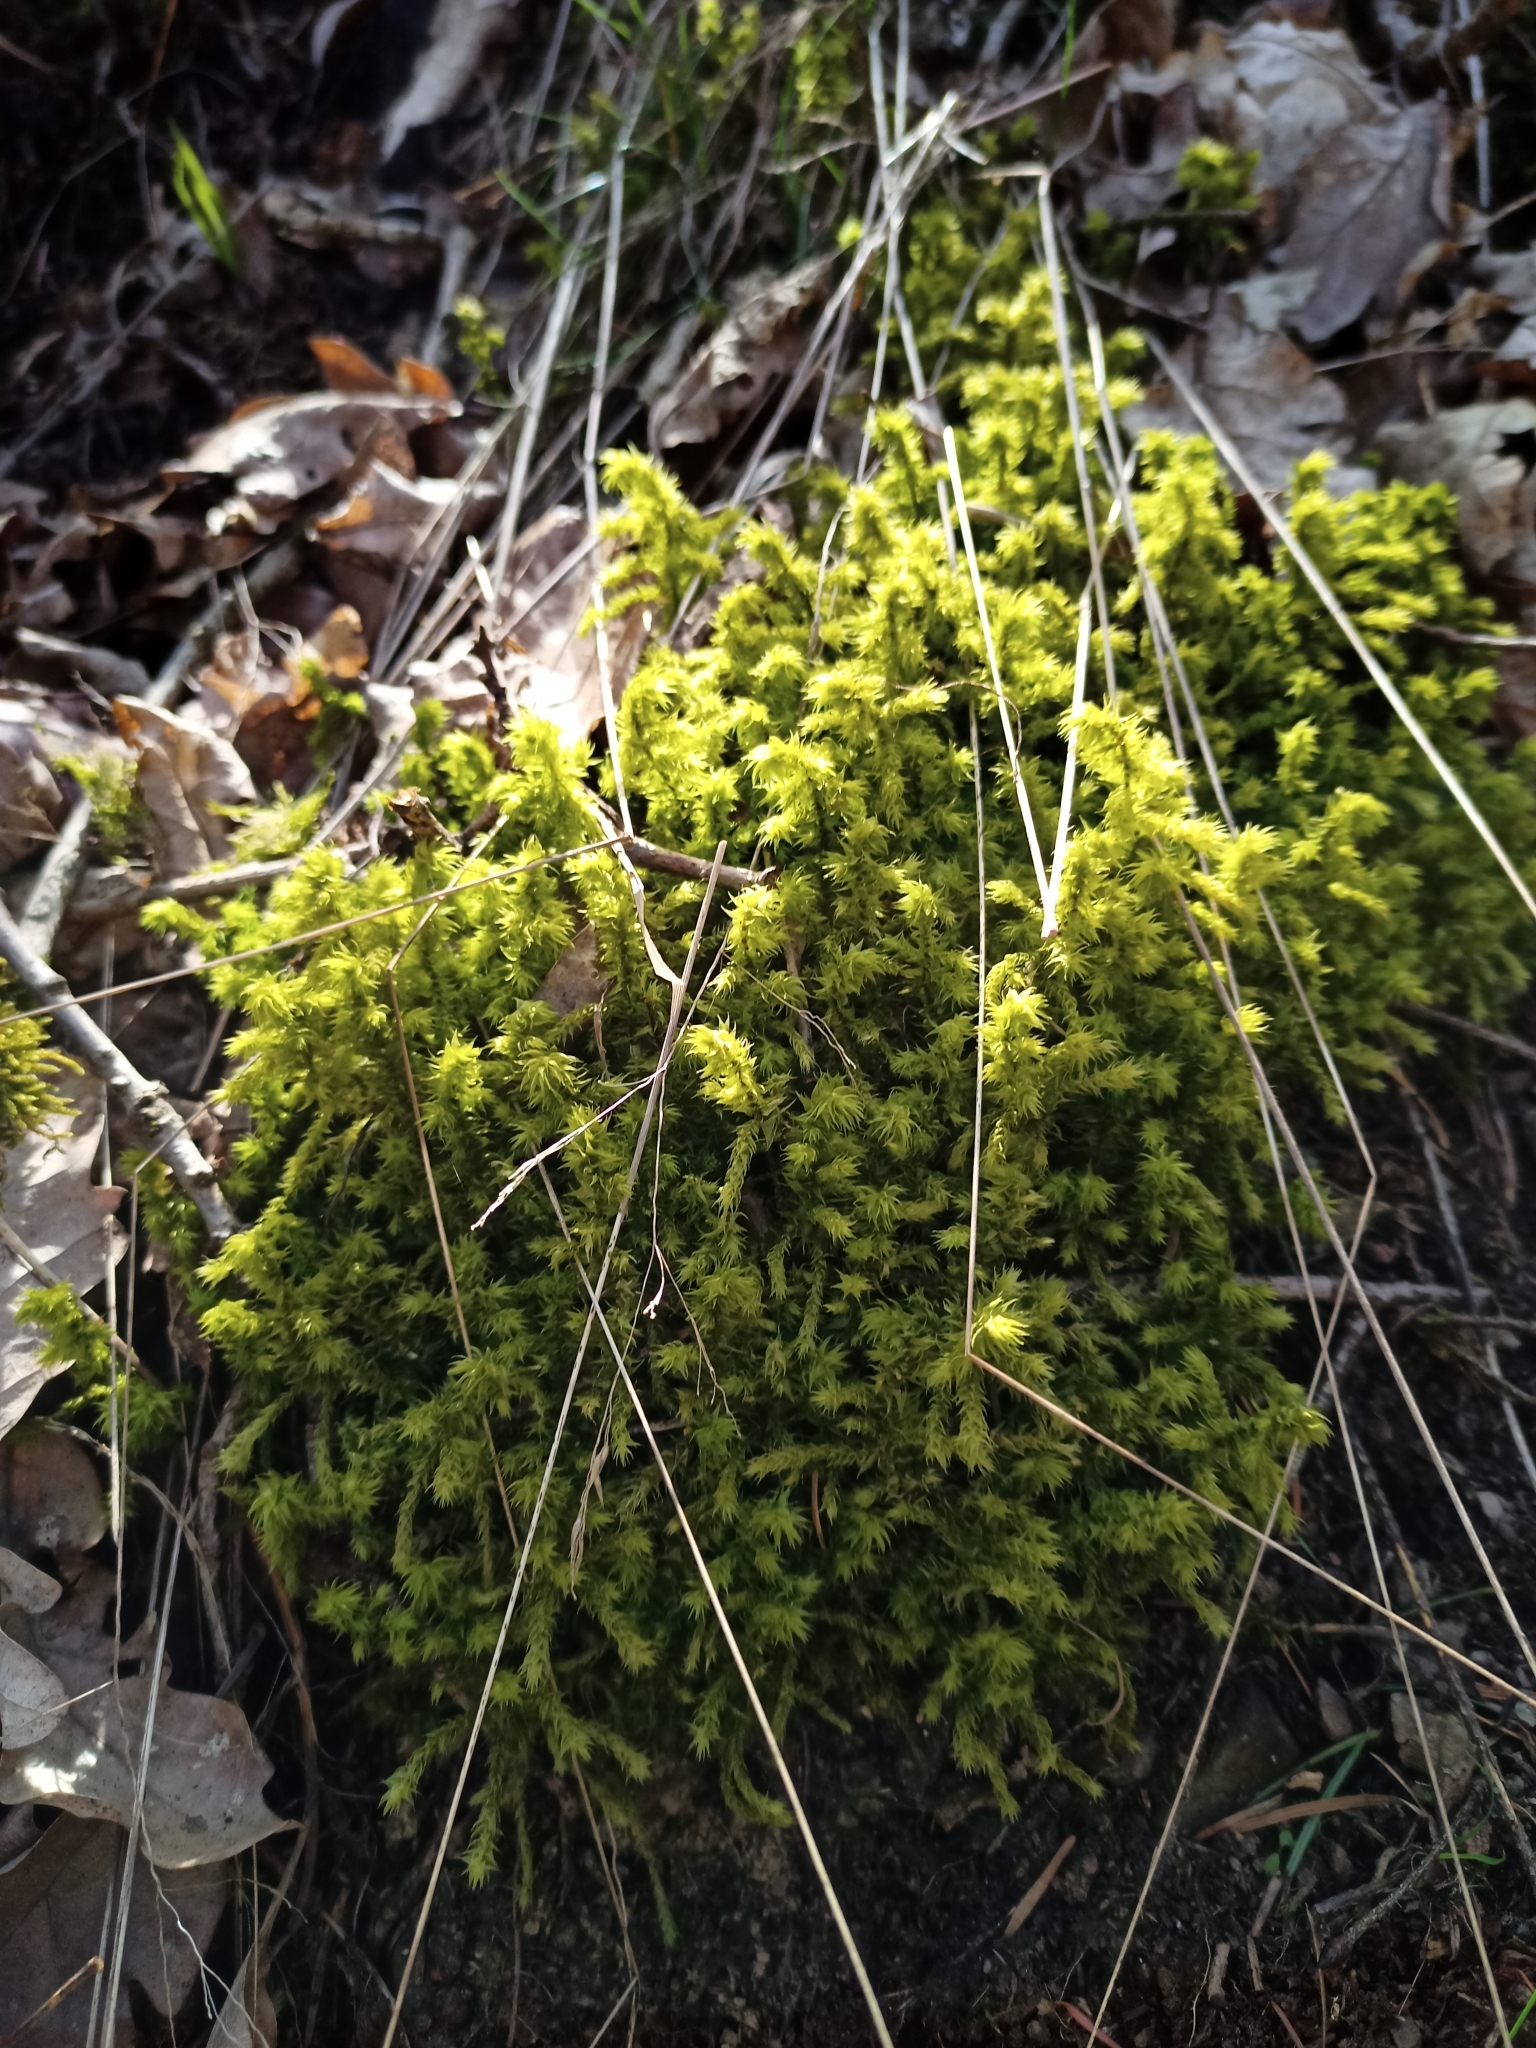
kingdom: Plantae
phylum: Bryophyta
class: Bryopsida
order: Hypnales
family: Hylocomiaceae
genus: Hylocomiadelphus
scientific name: Hylocomiadelphus triquetrus
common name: Rough goose neck moss
